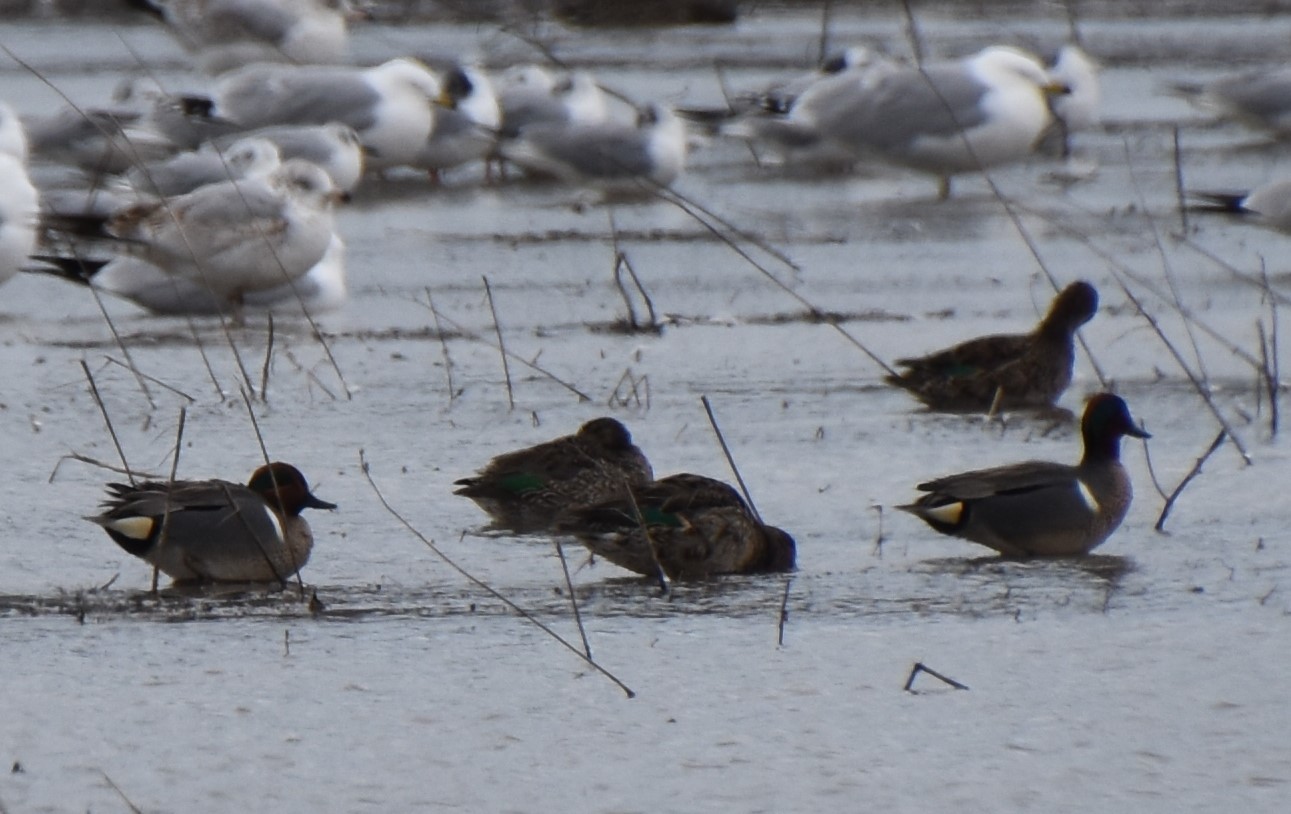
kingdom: Animalia
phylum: Chordata
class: Aves
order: Anseriformes
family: Anatidae
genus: Anas
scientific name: Anas crecca
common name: Eurasian teal
